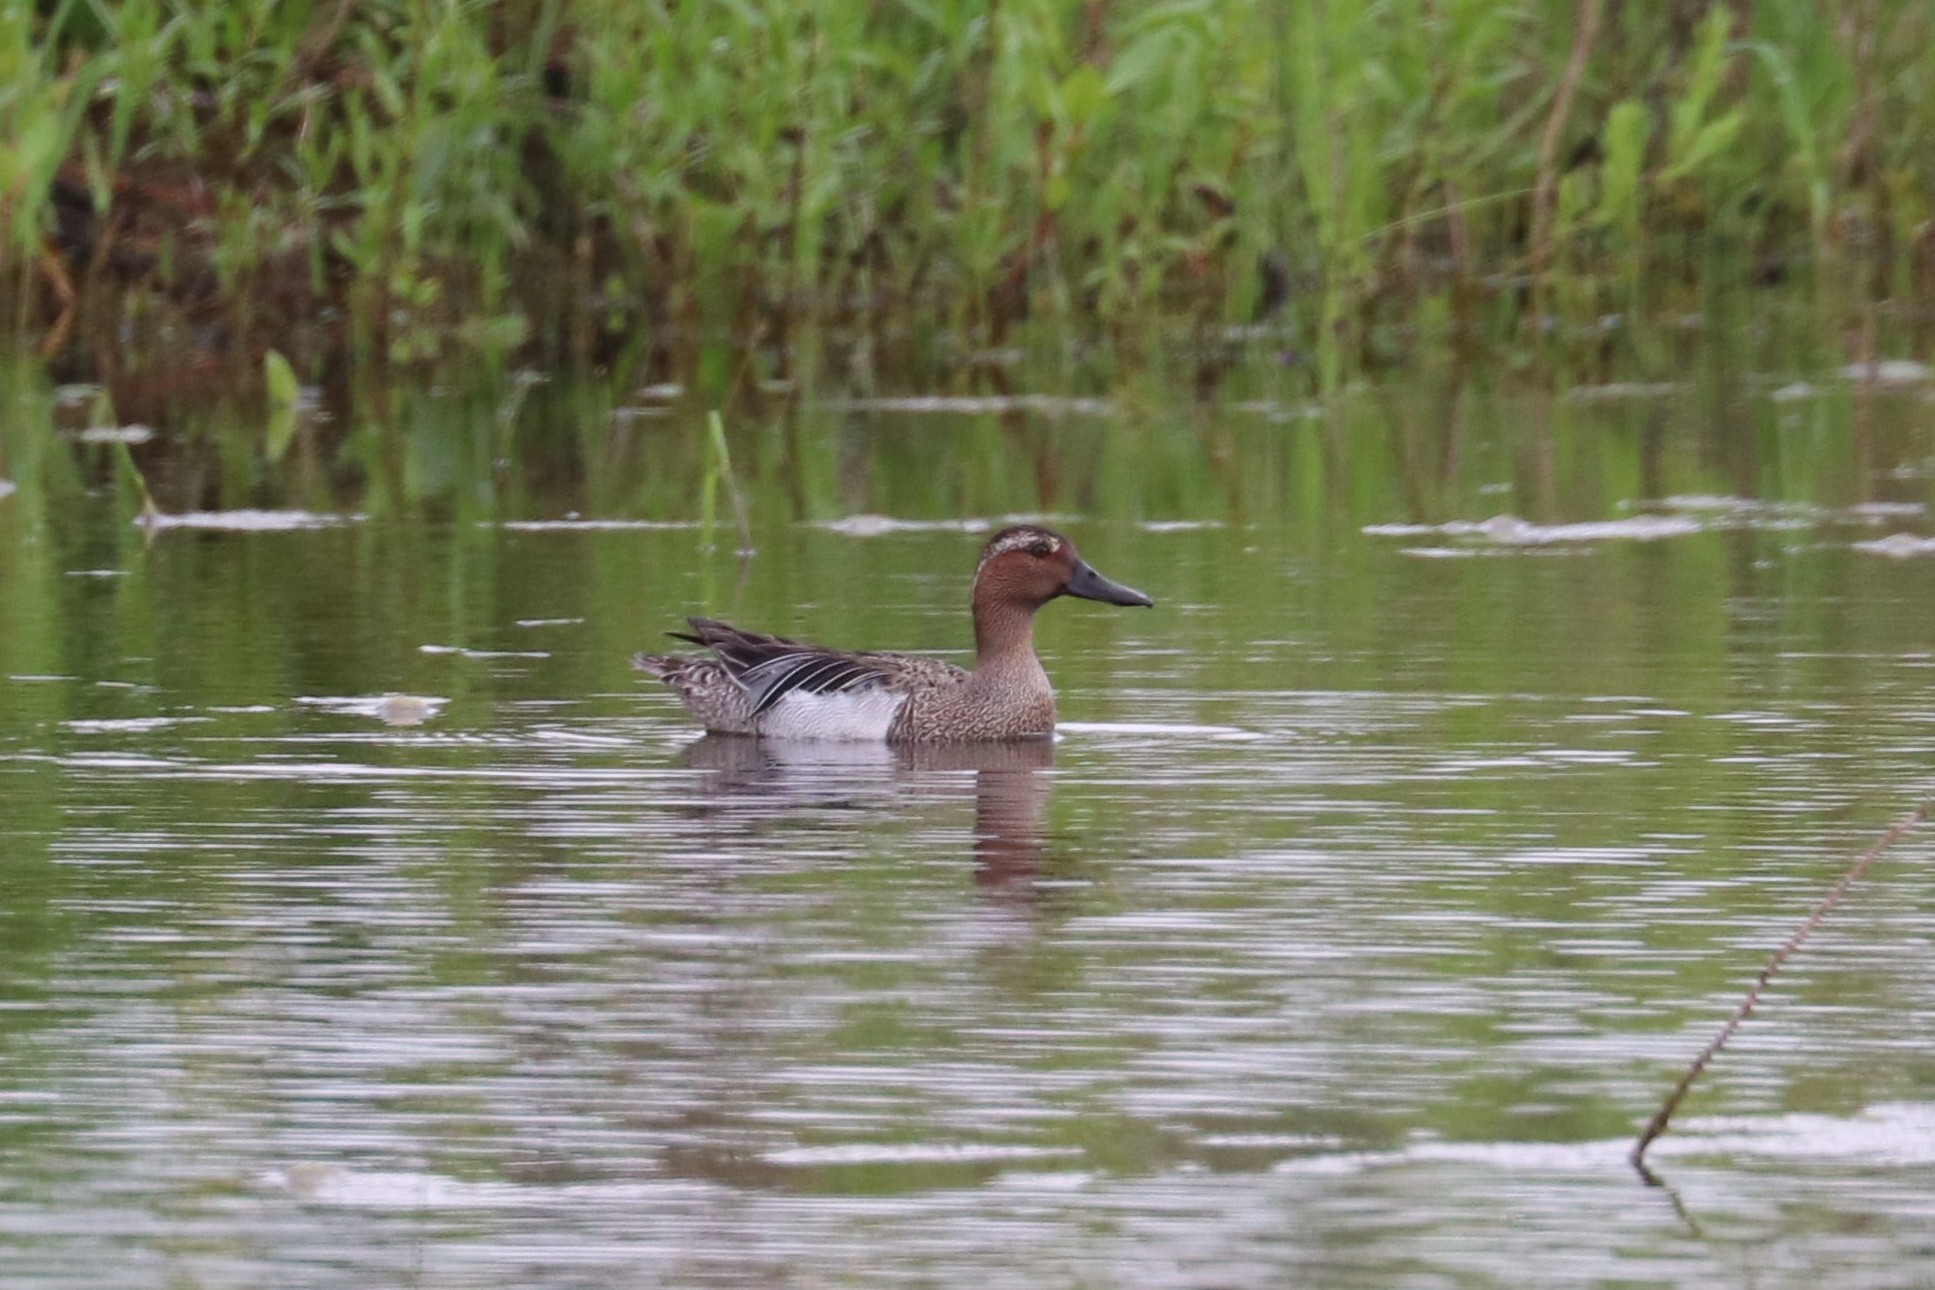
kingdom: Animalia
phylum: Chordata
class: Aves
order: Anseriformes
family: Anatidae
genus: Spatula
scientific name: Spatula querquedula
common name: Garganey
